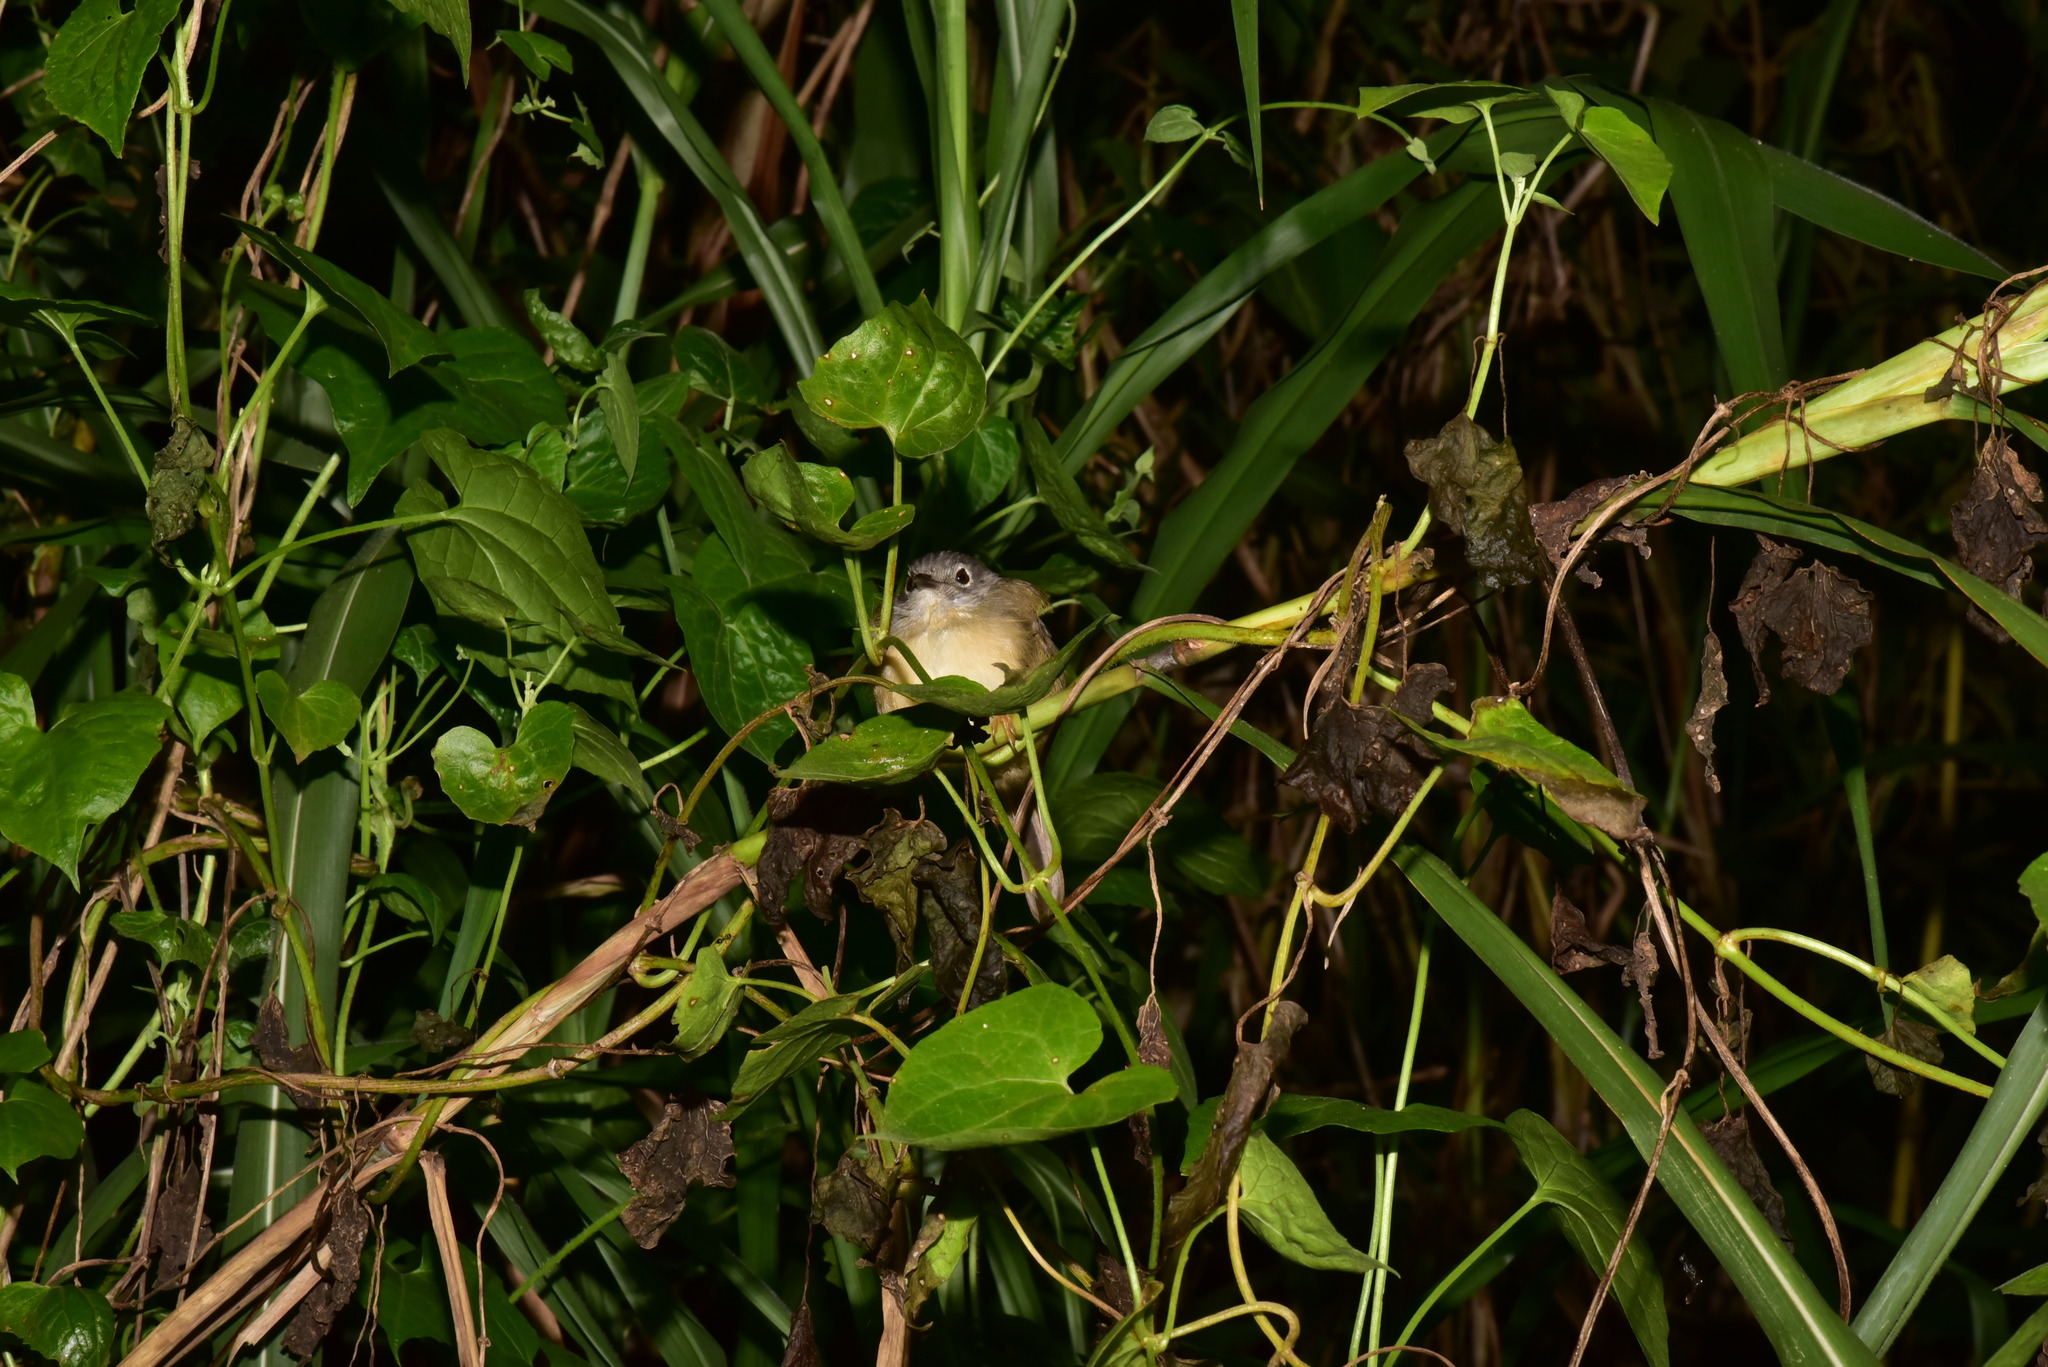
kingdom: Animalia
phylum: Chordata
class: Aves
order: Passeriformes
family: Pellorneidae
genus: Alcippe
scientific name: Alcippe morrisonia
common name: Grey-cheeked fulvetta
